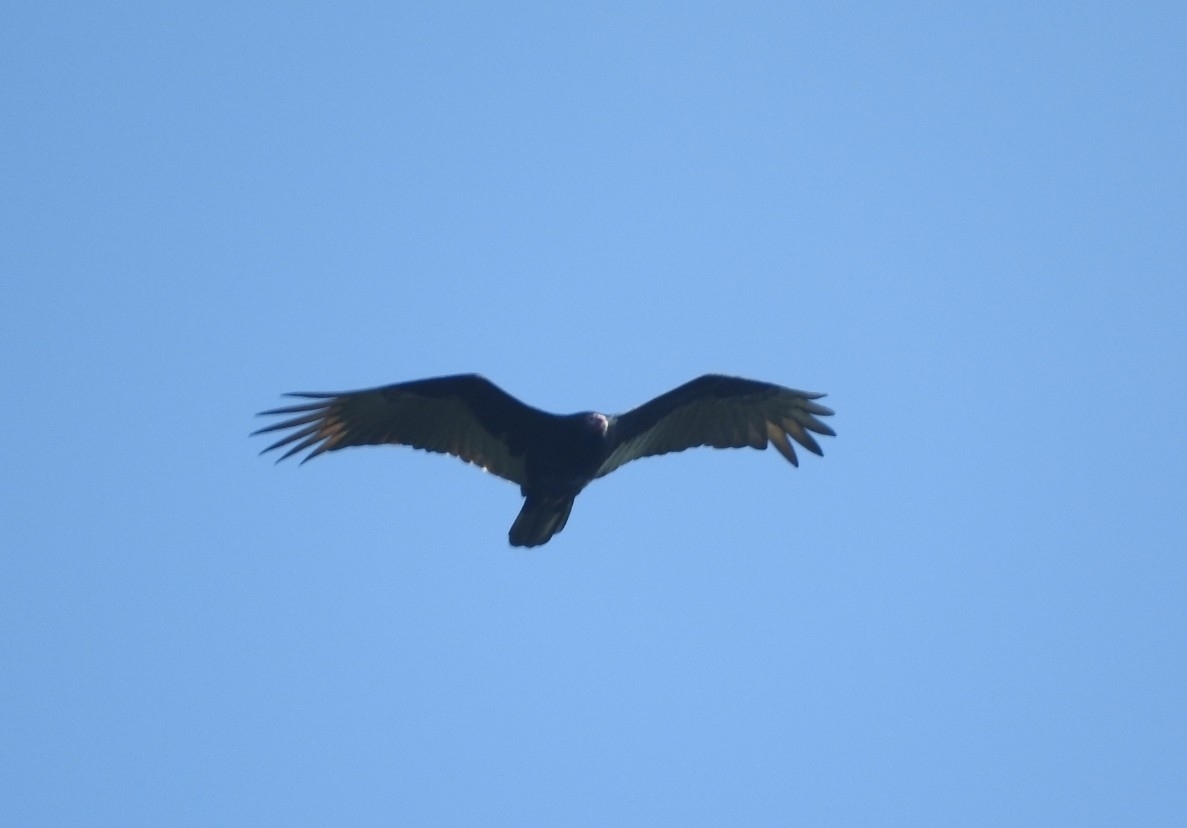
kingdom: Animalia
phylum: Chordata
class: Aves
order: Accipitriformes
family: Cathartidae
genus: Cathartes
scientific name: Cathartes aura
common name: Turkey vulture
